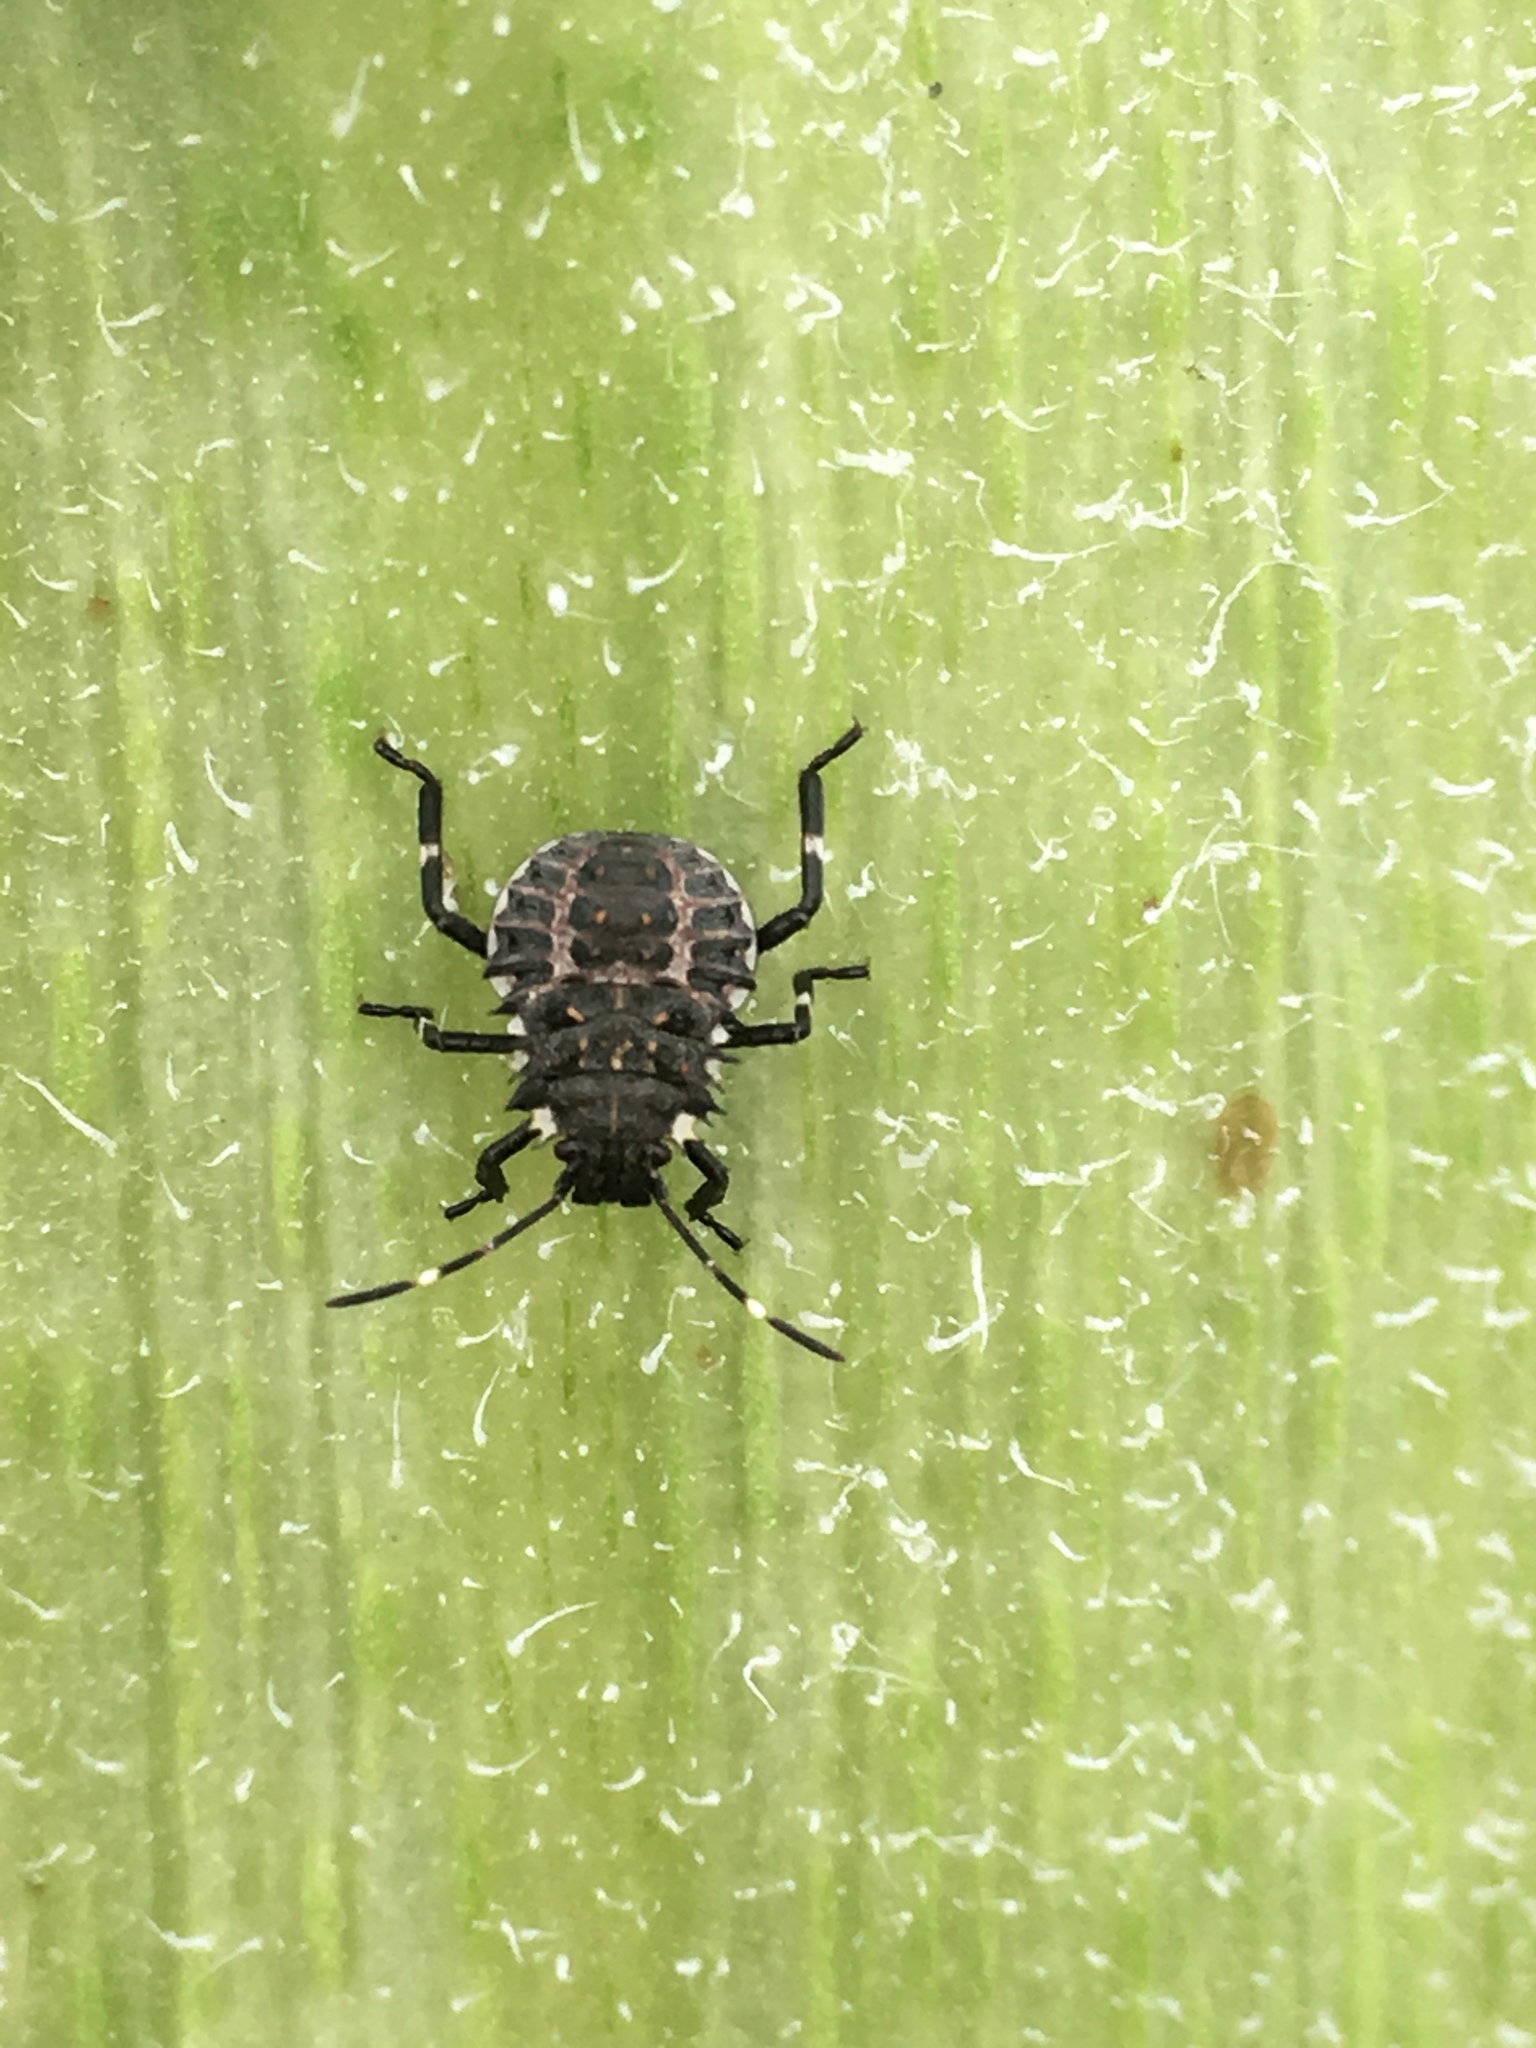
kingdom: Animalia
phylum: Arthropoda
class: Insecta
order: Hemiptera
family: Pentatomidae
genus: Halyomorpha
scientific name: Halyomorpha halys
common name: Brown marmorated stink bug
